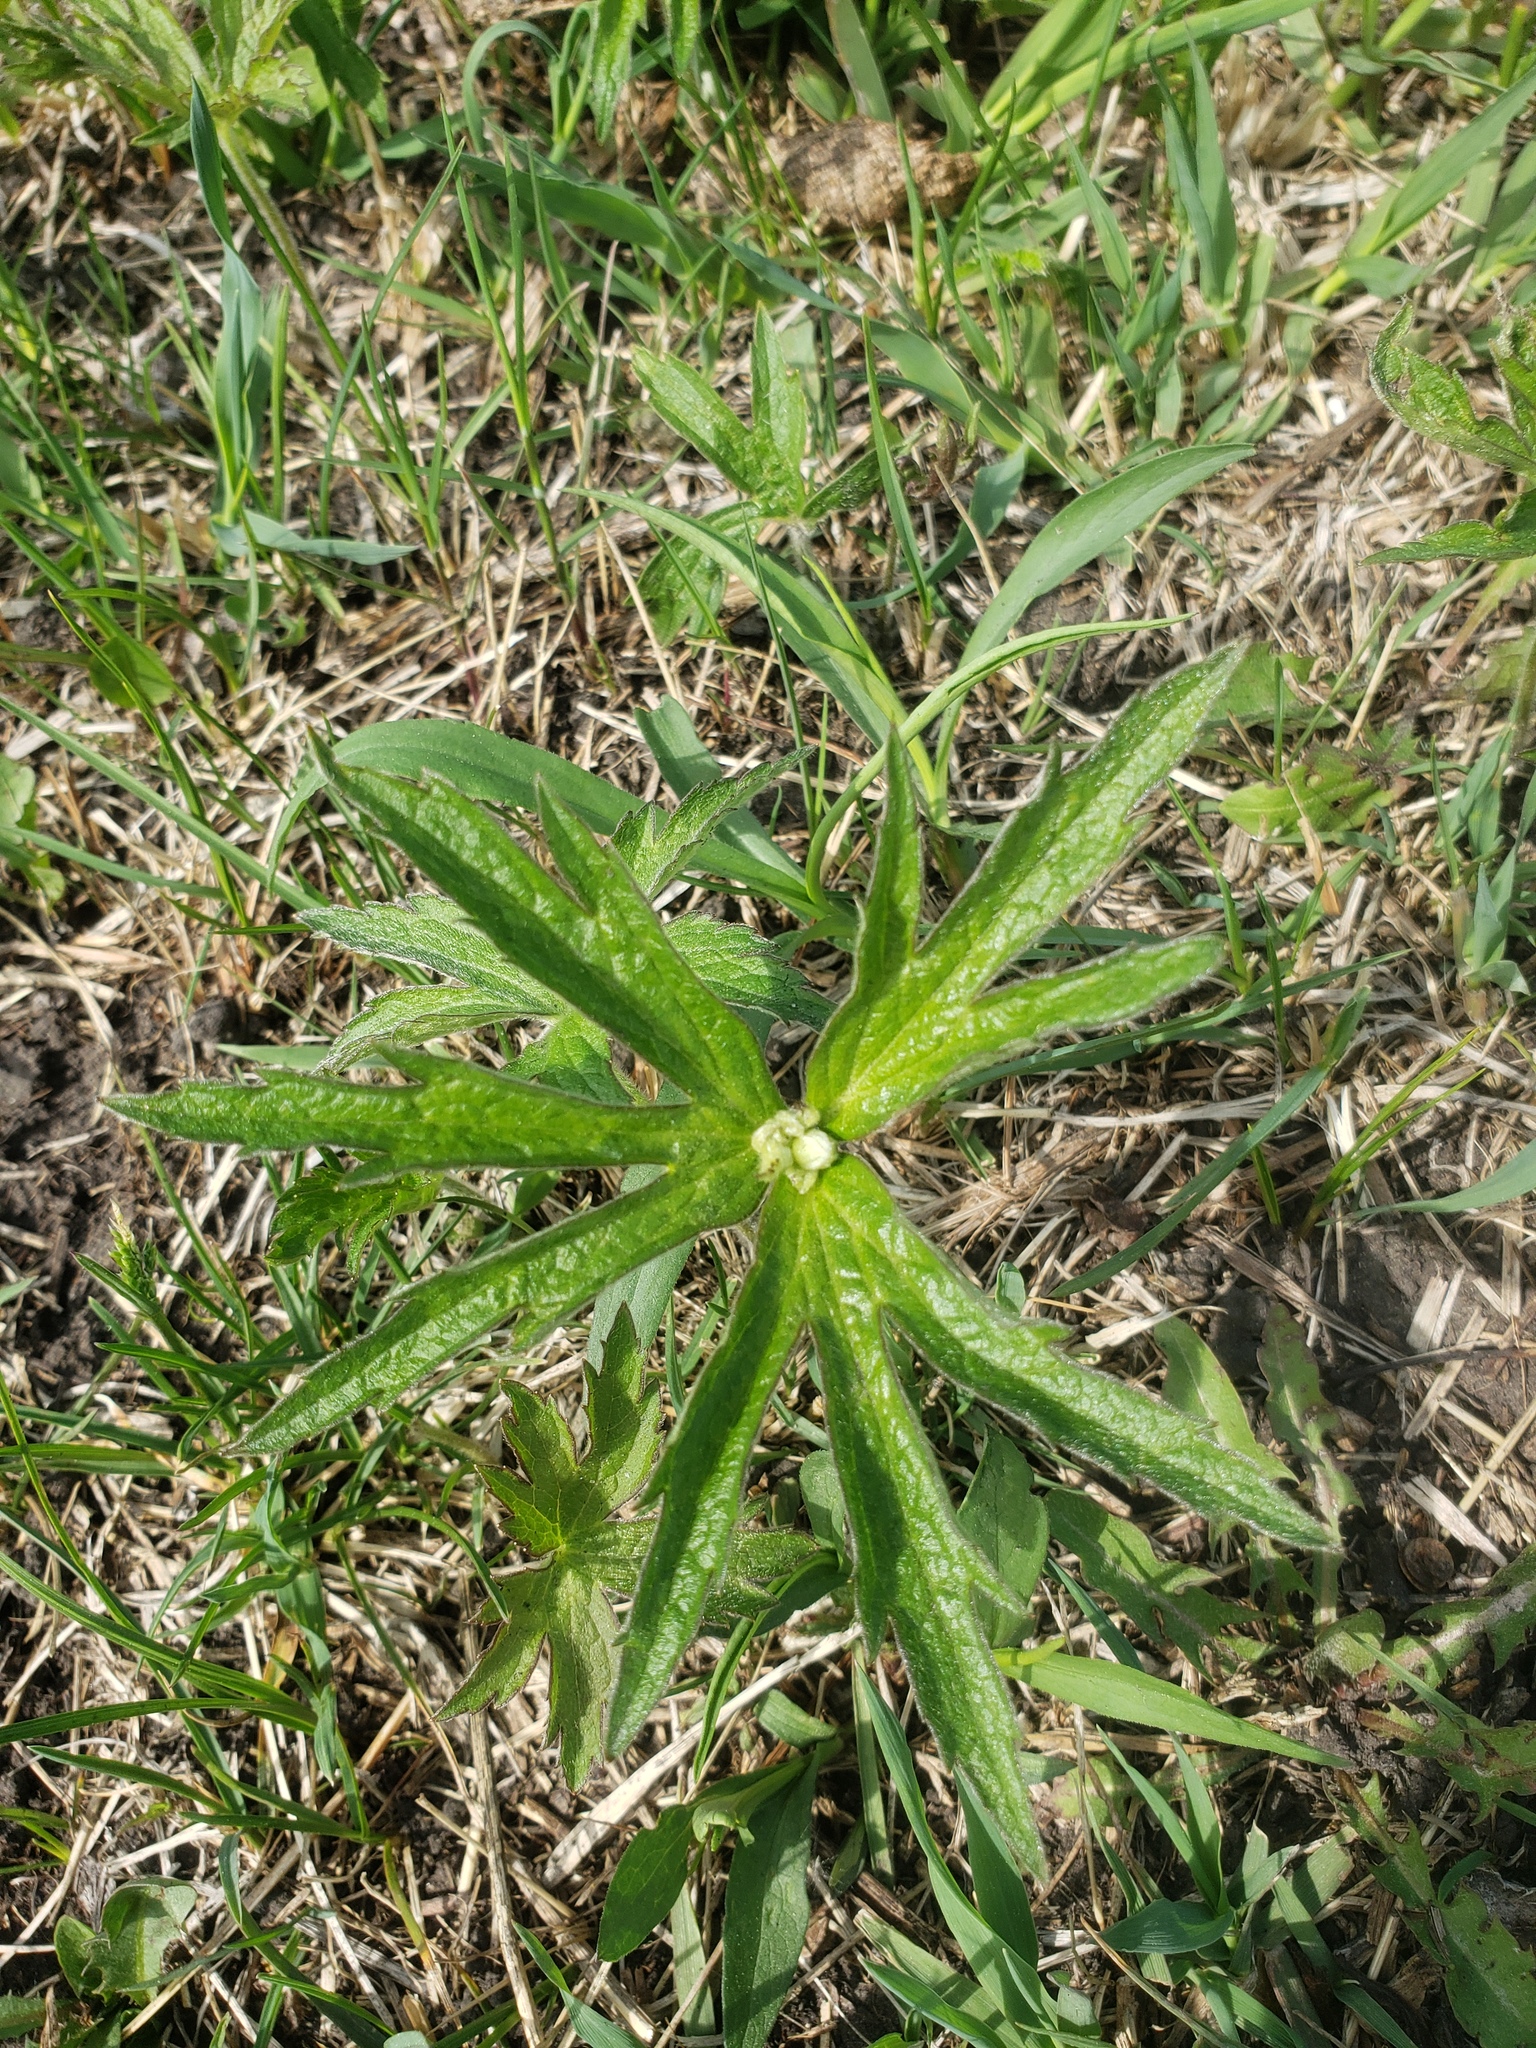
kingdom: Plantae
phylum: Tracheophyta
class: Magnoliopsida
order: Ranunculales
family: Ranunculaceae
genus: Anemonastrum
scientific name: Anemonastrum canadense
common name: Canada anemone
